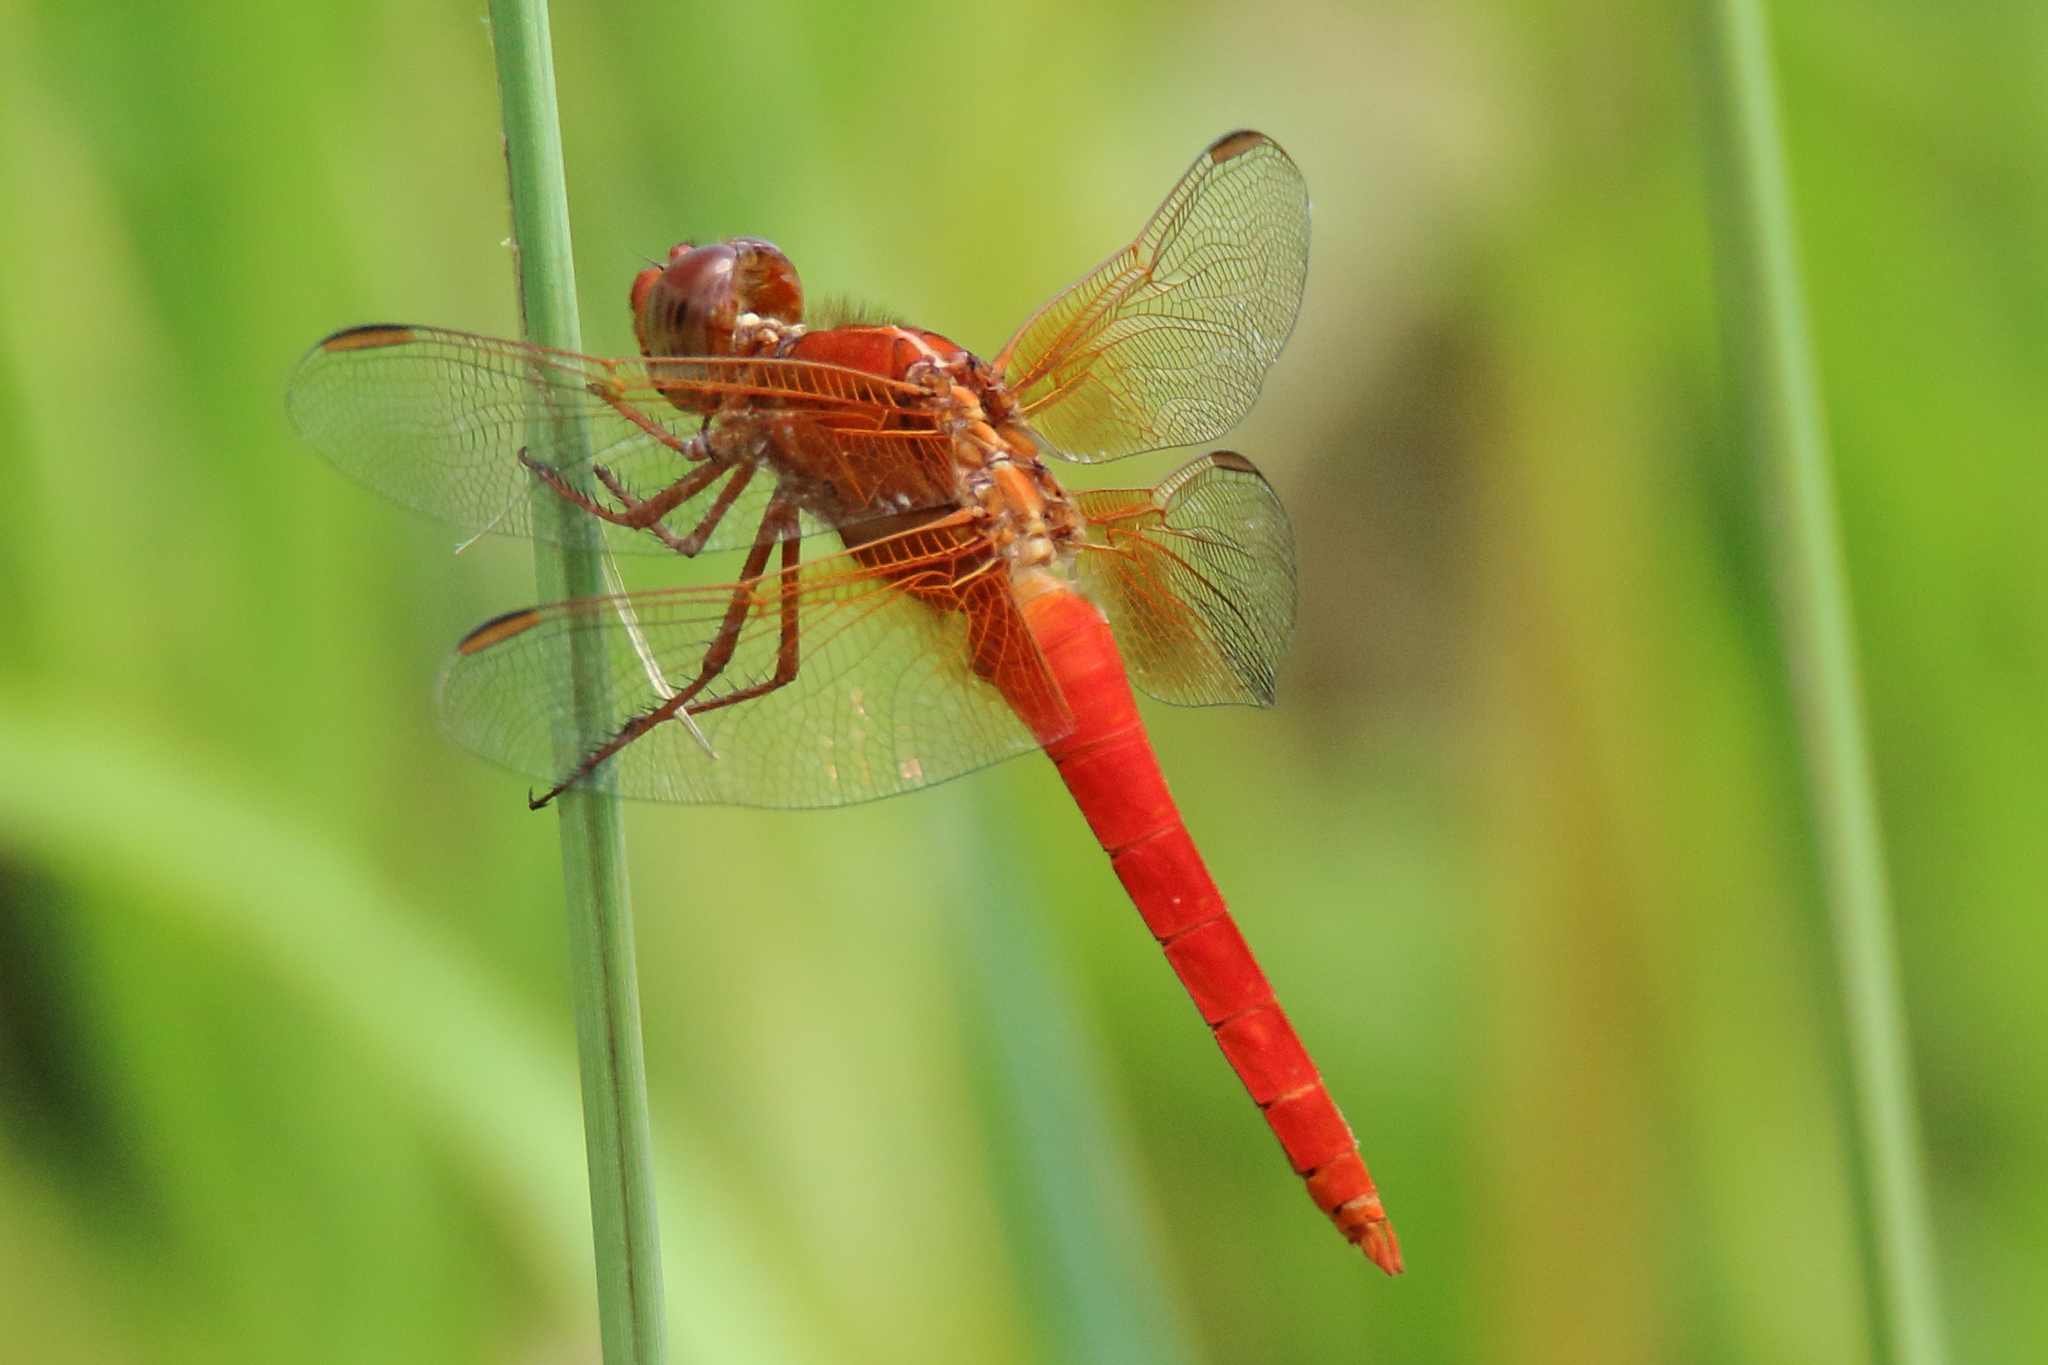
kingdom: Animalia
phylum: Arthropoda
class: Insecta
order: Odonata
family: Libellulidae
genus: Libellula
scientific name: Libellula croceipennis
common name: Neon skimmer
